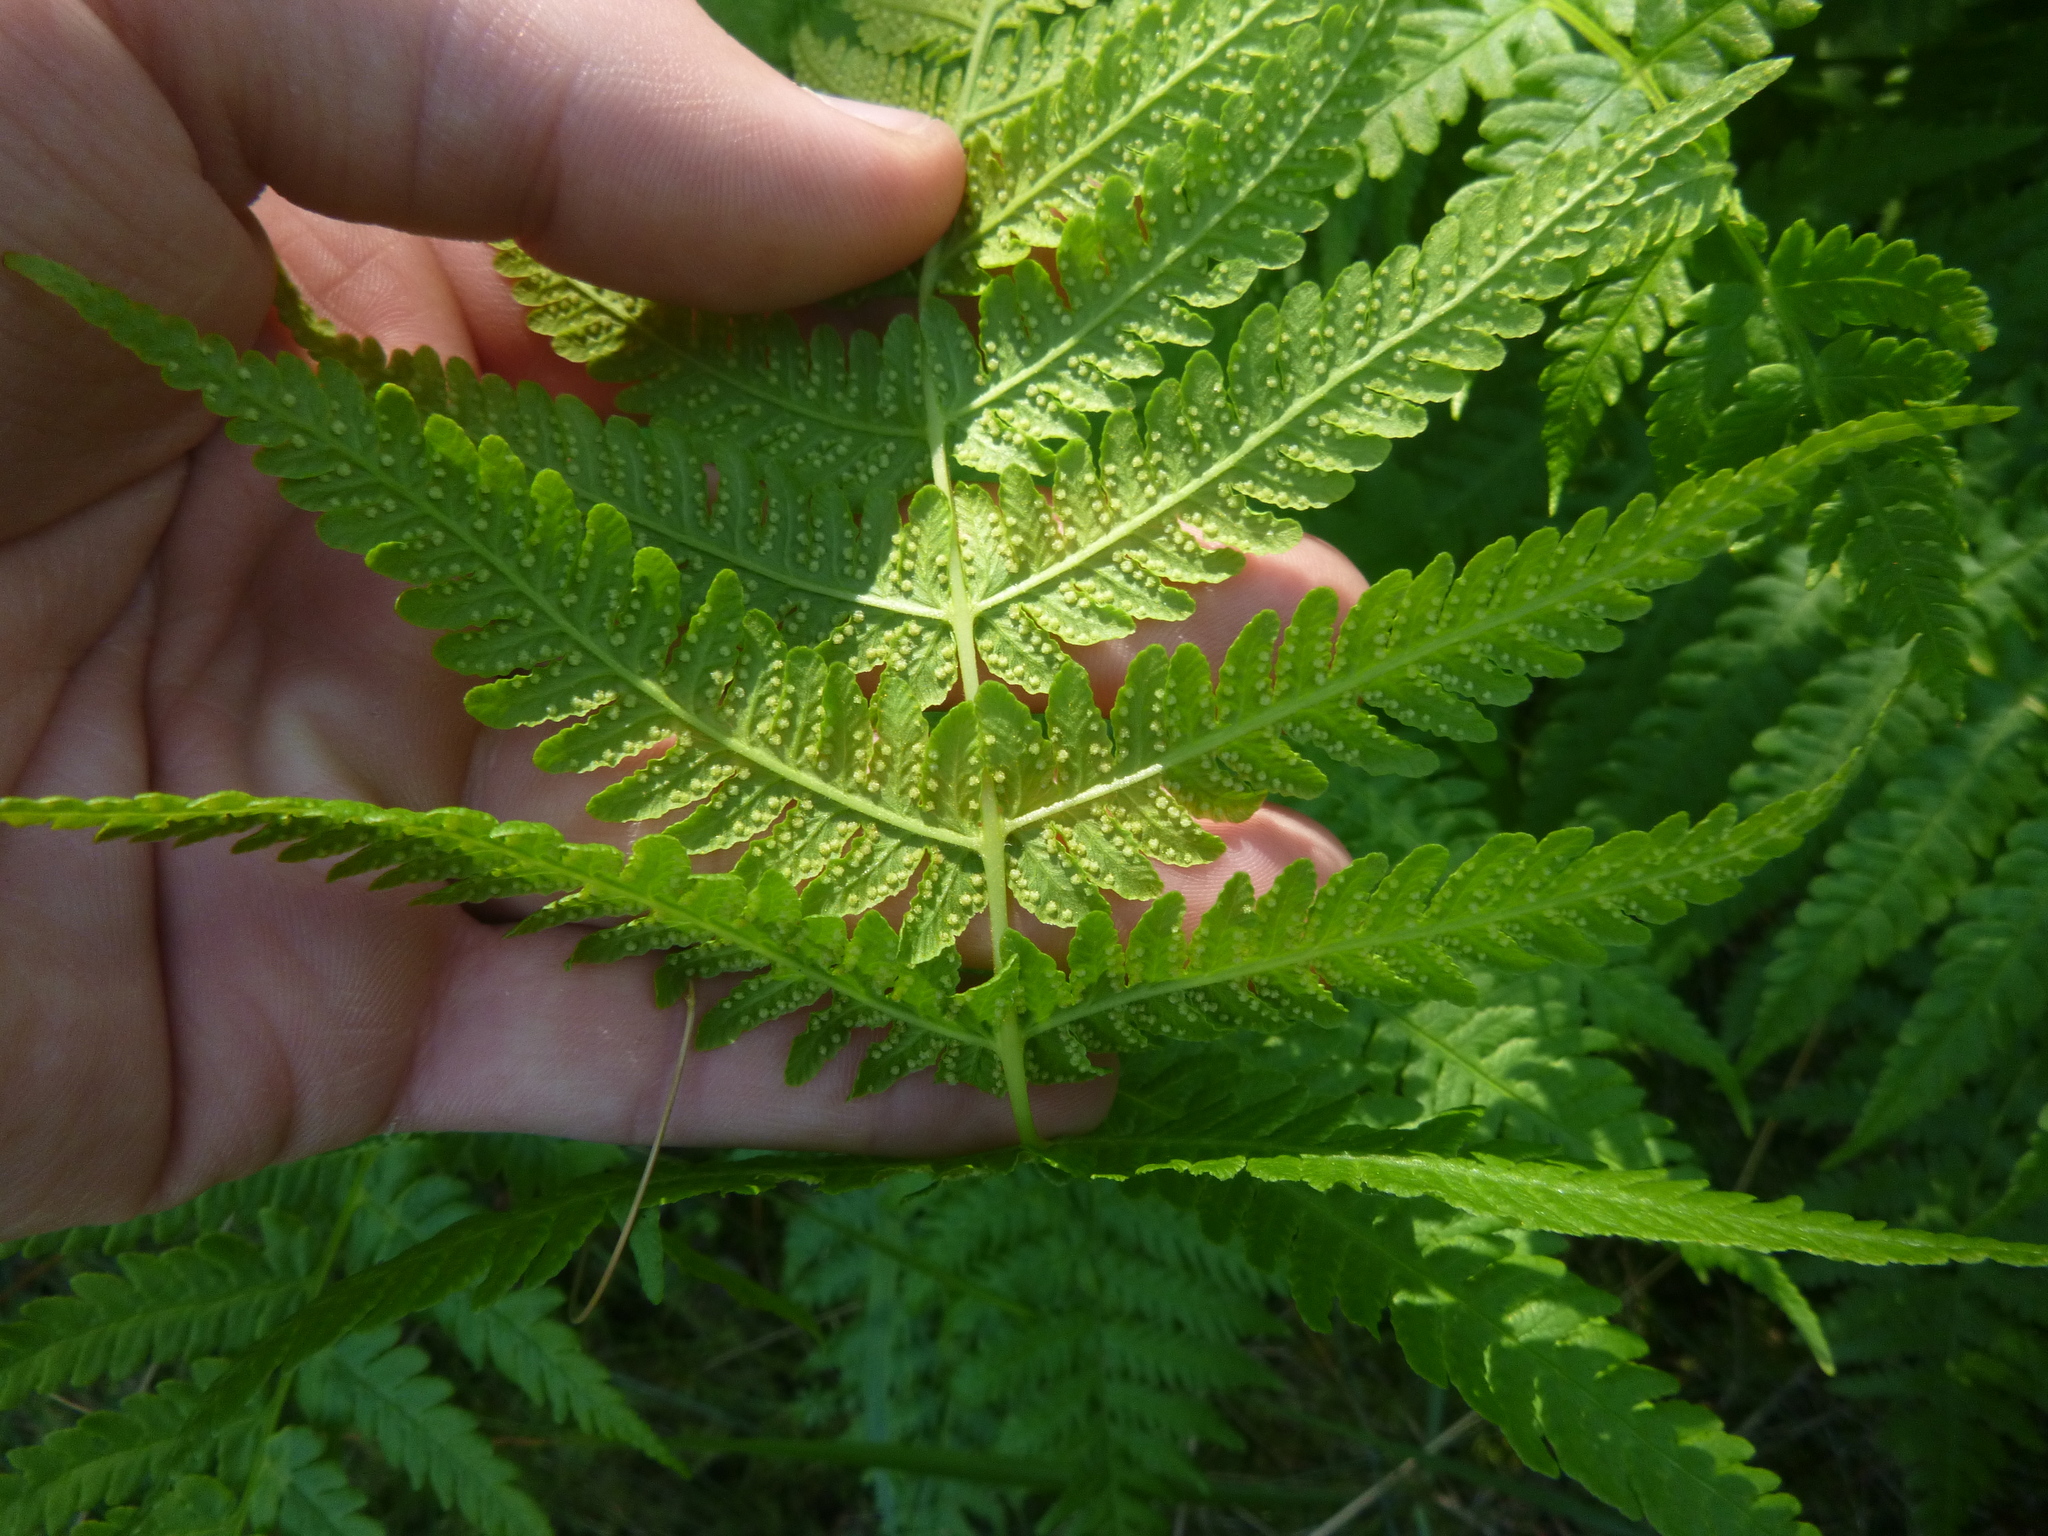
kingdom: Plantae
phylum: Tracheophyta
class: Polypodiopsida
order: Polypodiales
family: Thelypteridaceae
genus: Oreopteris
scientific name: Oreopteris limbosperma
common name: Lemon-scented fern
